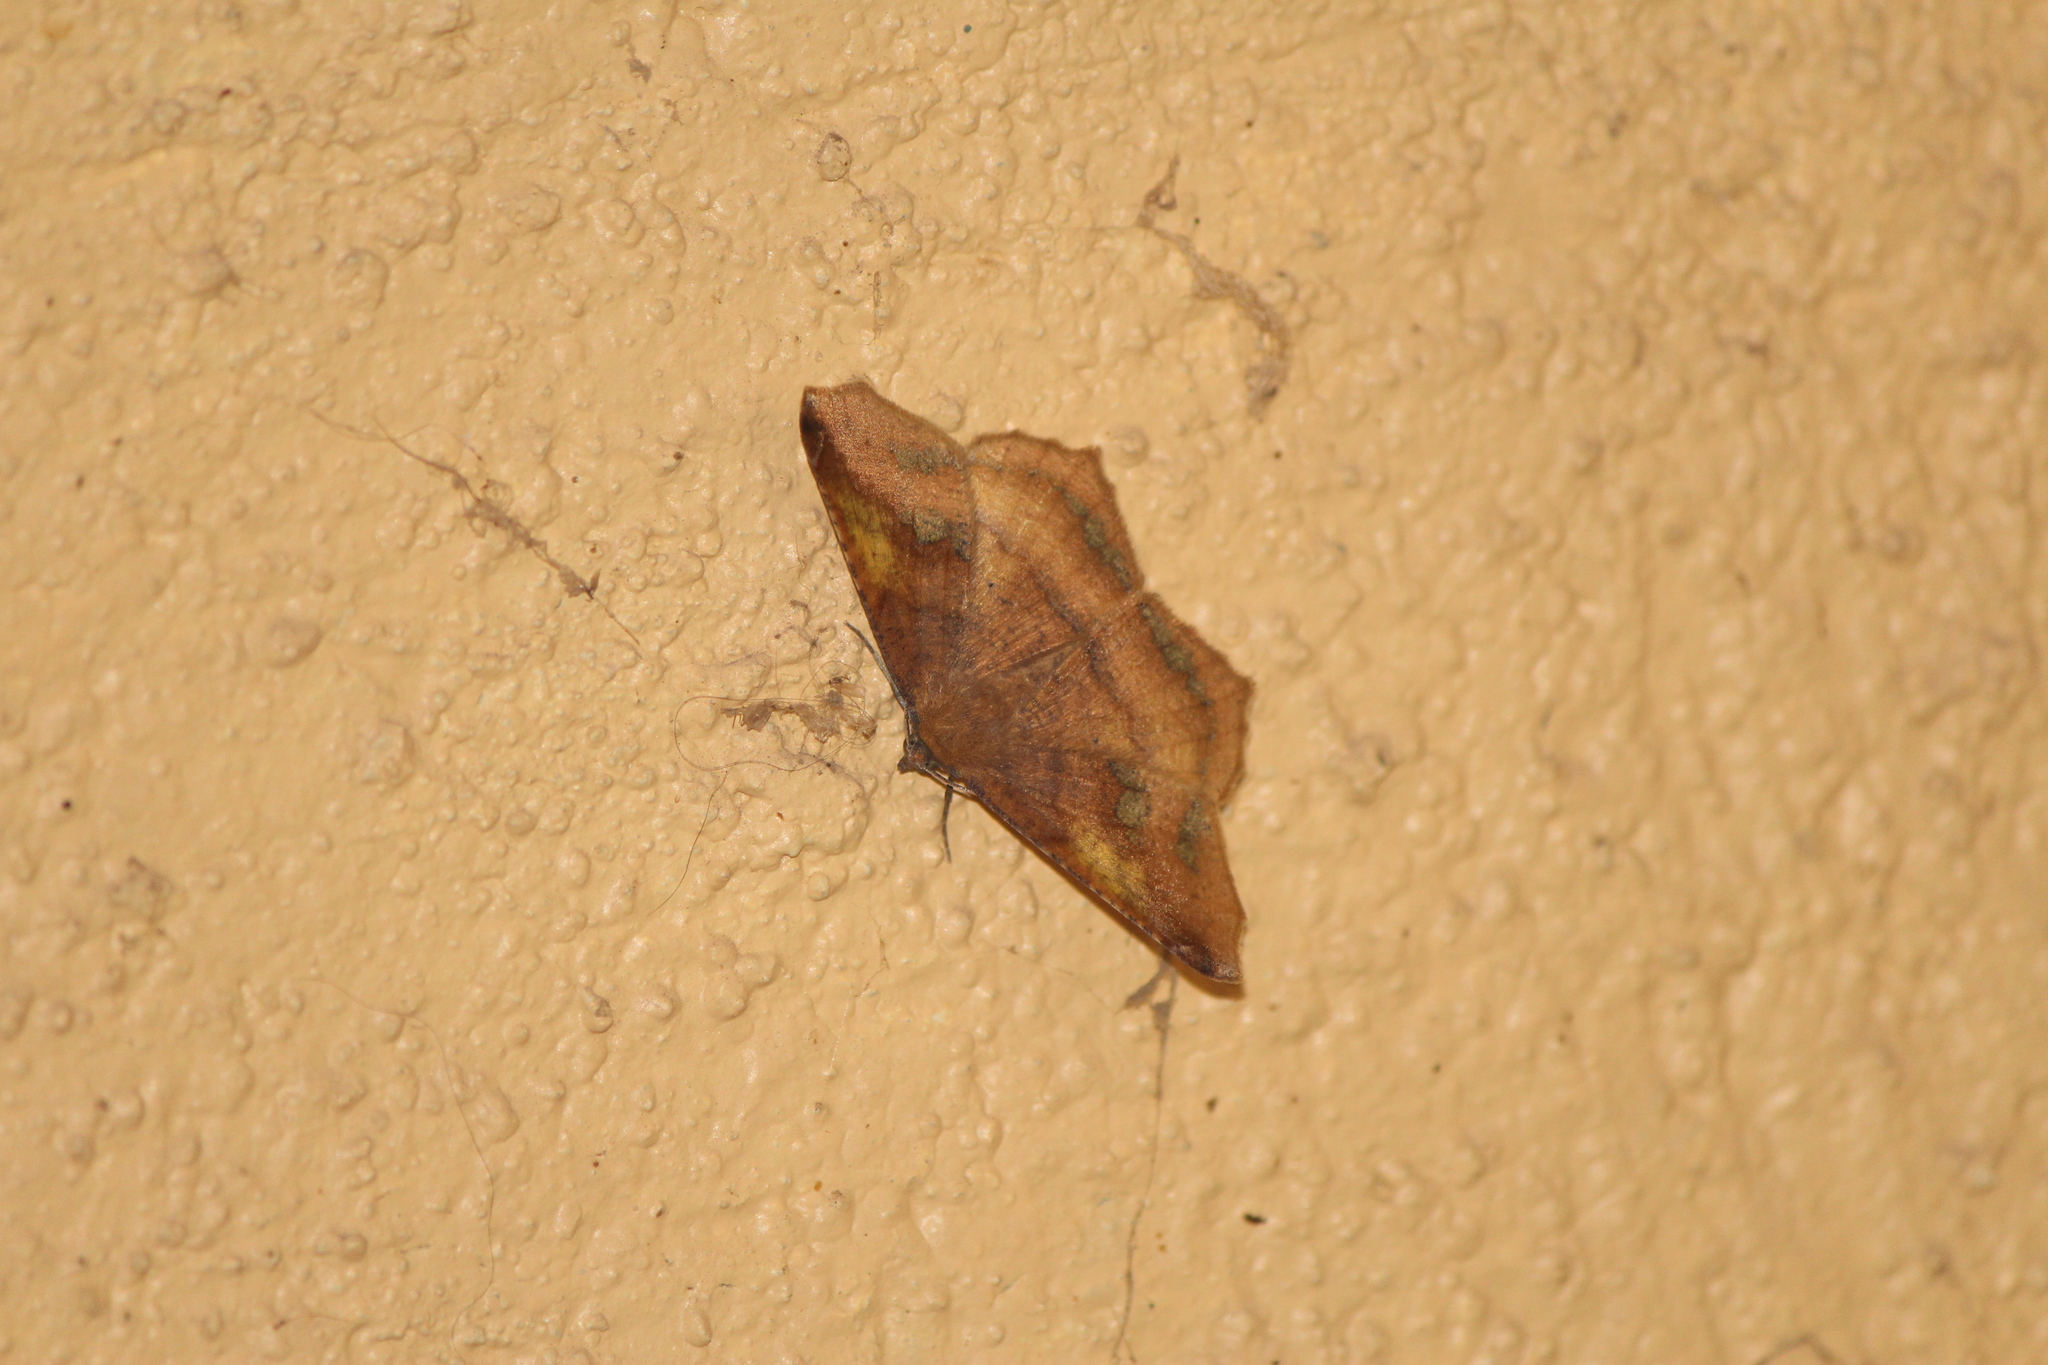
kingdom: Animalia
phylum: Arthropoda
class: Insecta
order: Lepidoptera
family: Geometridae
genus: Antepione
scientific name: Antepione thisoaria
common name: Variable antipione
